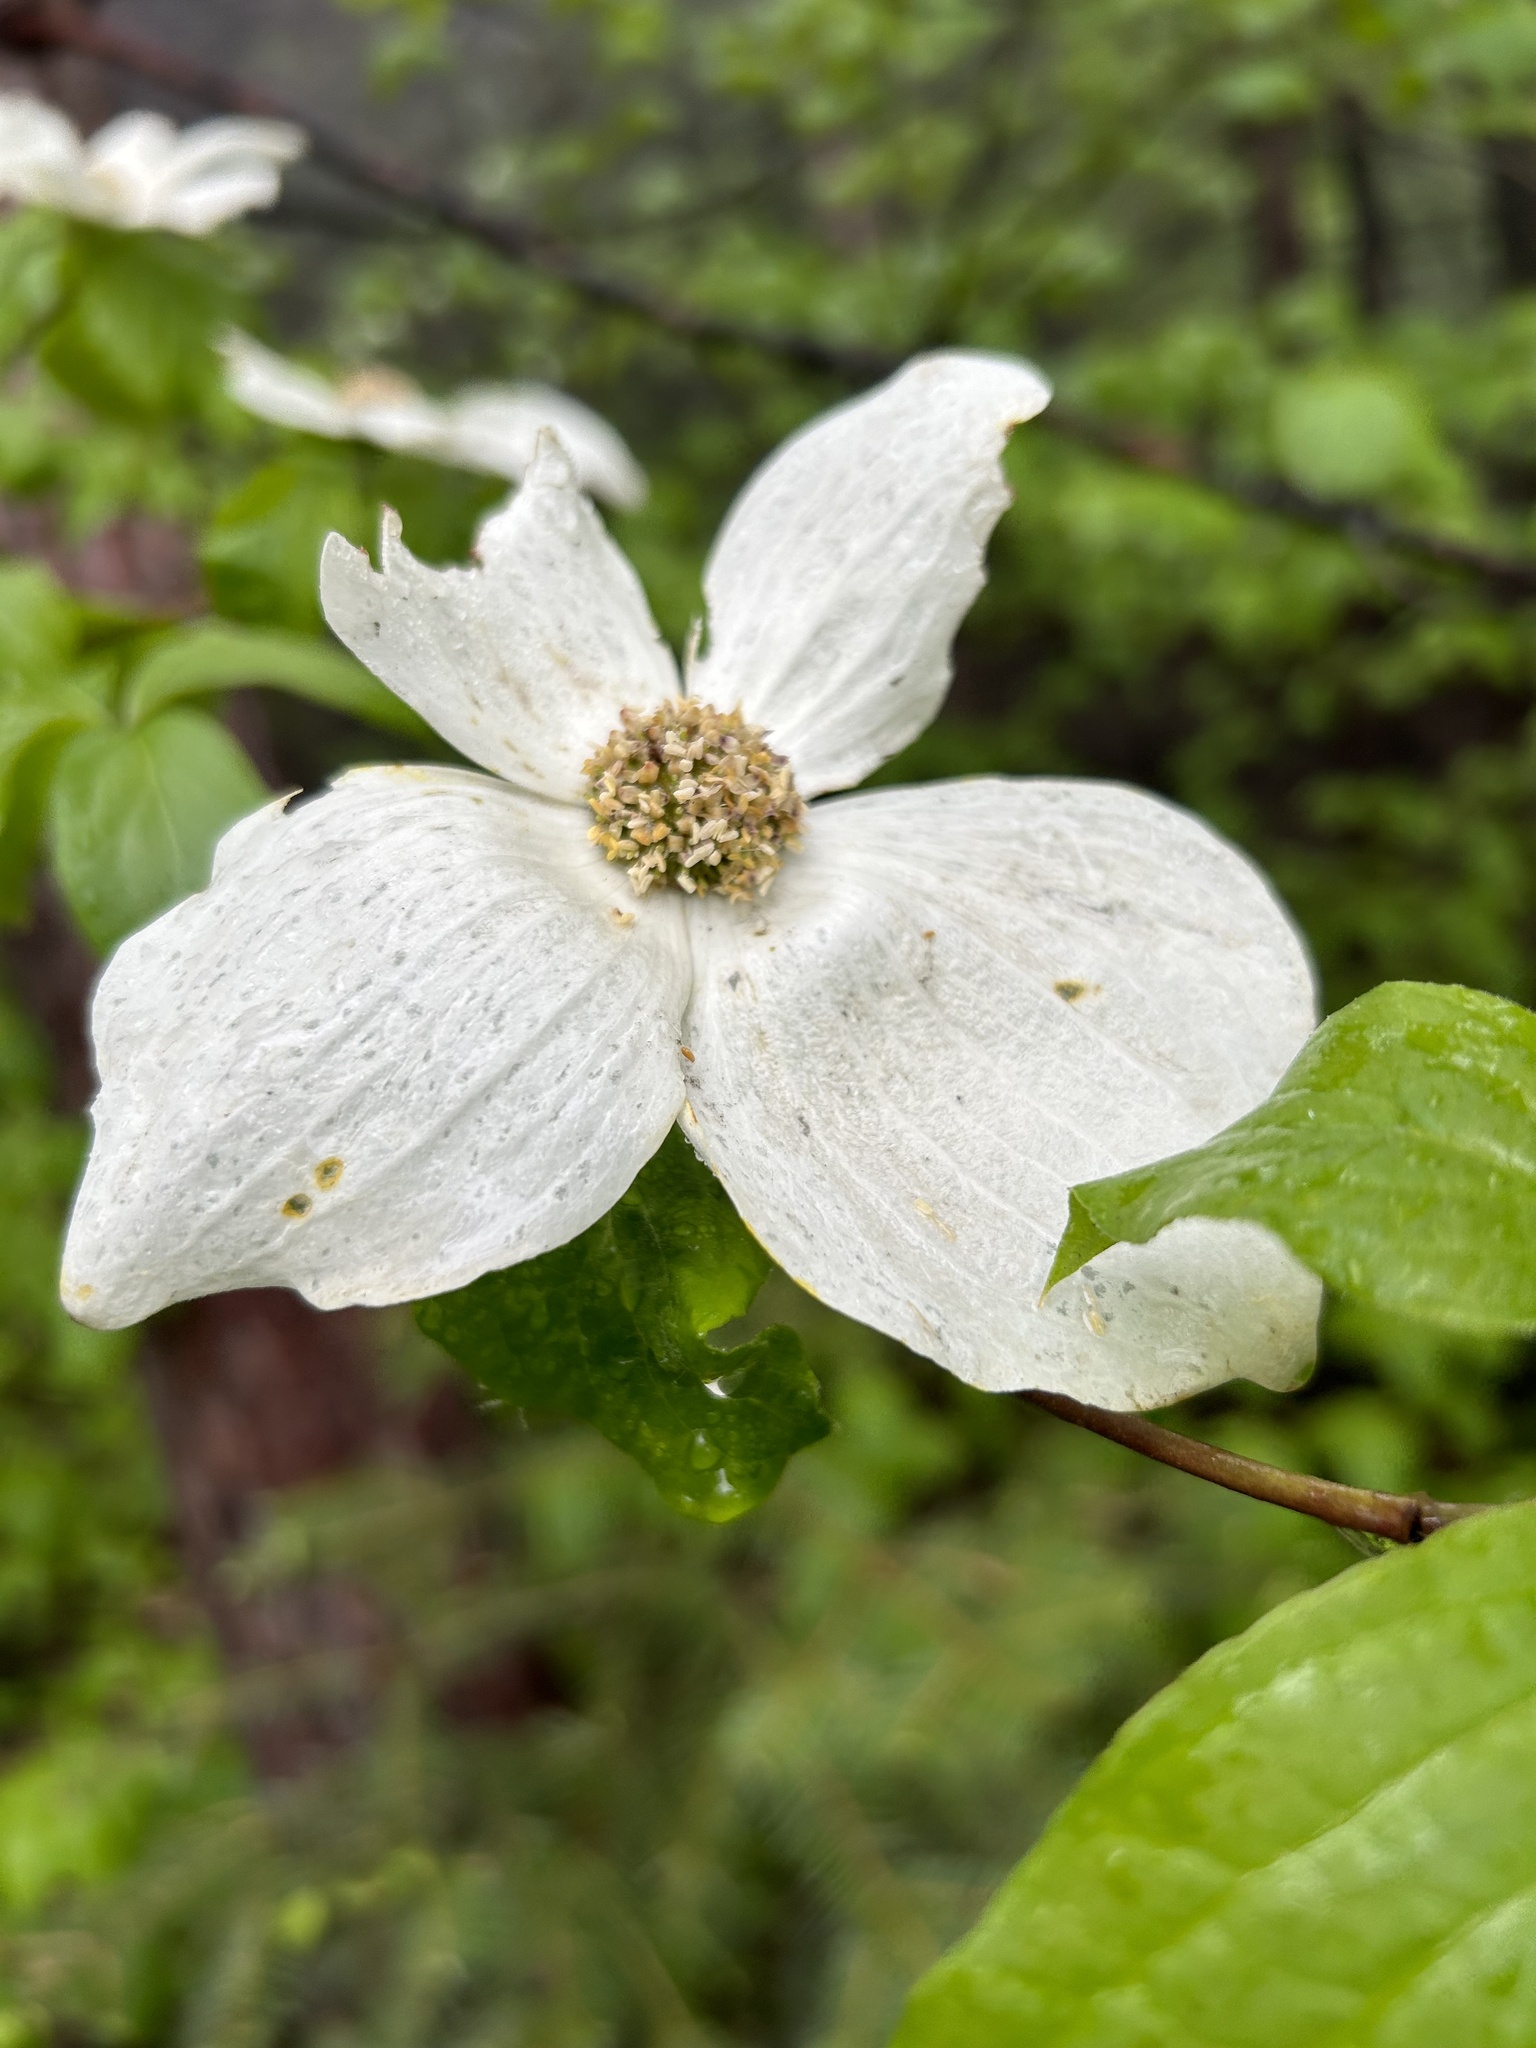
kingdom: Plantae
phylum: Tracheophyta
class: Magnoliopsida
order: Cornales
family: Cornaceae
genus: Cornus
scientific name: Cornus nuttallii
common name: Pacific dogwood
